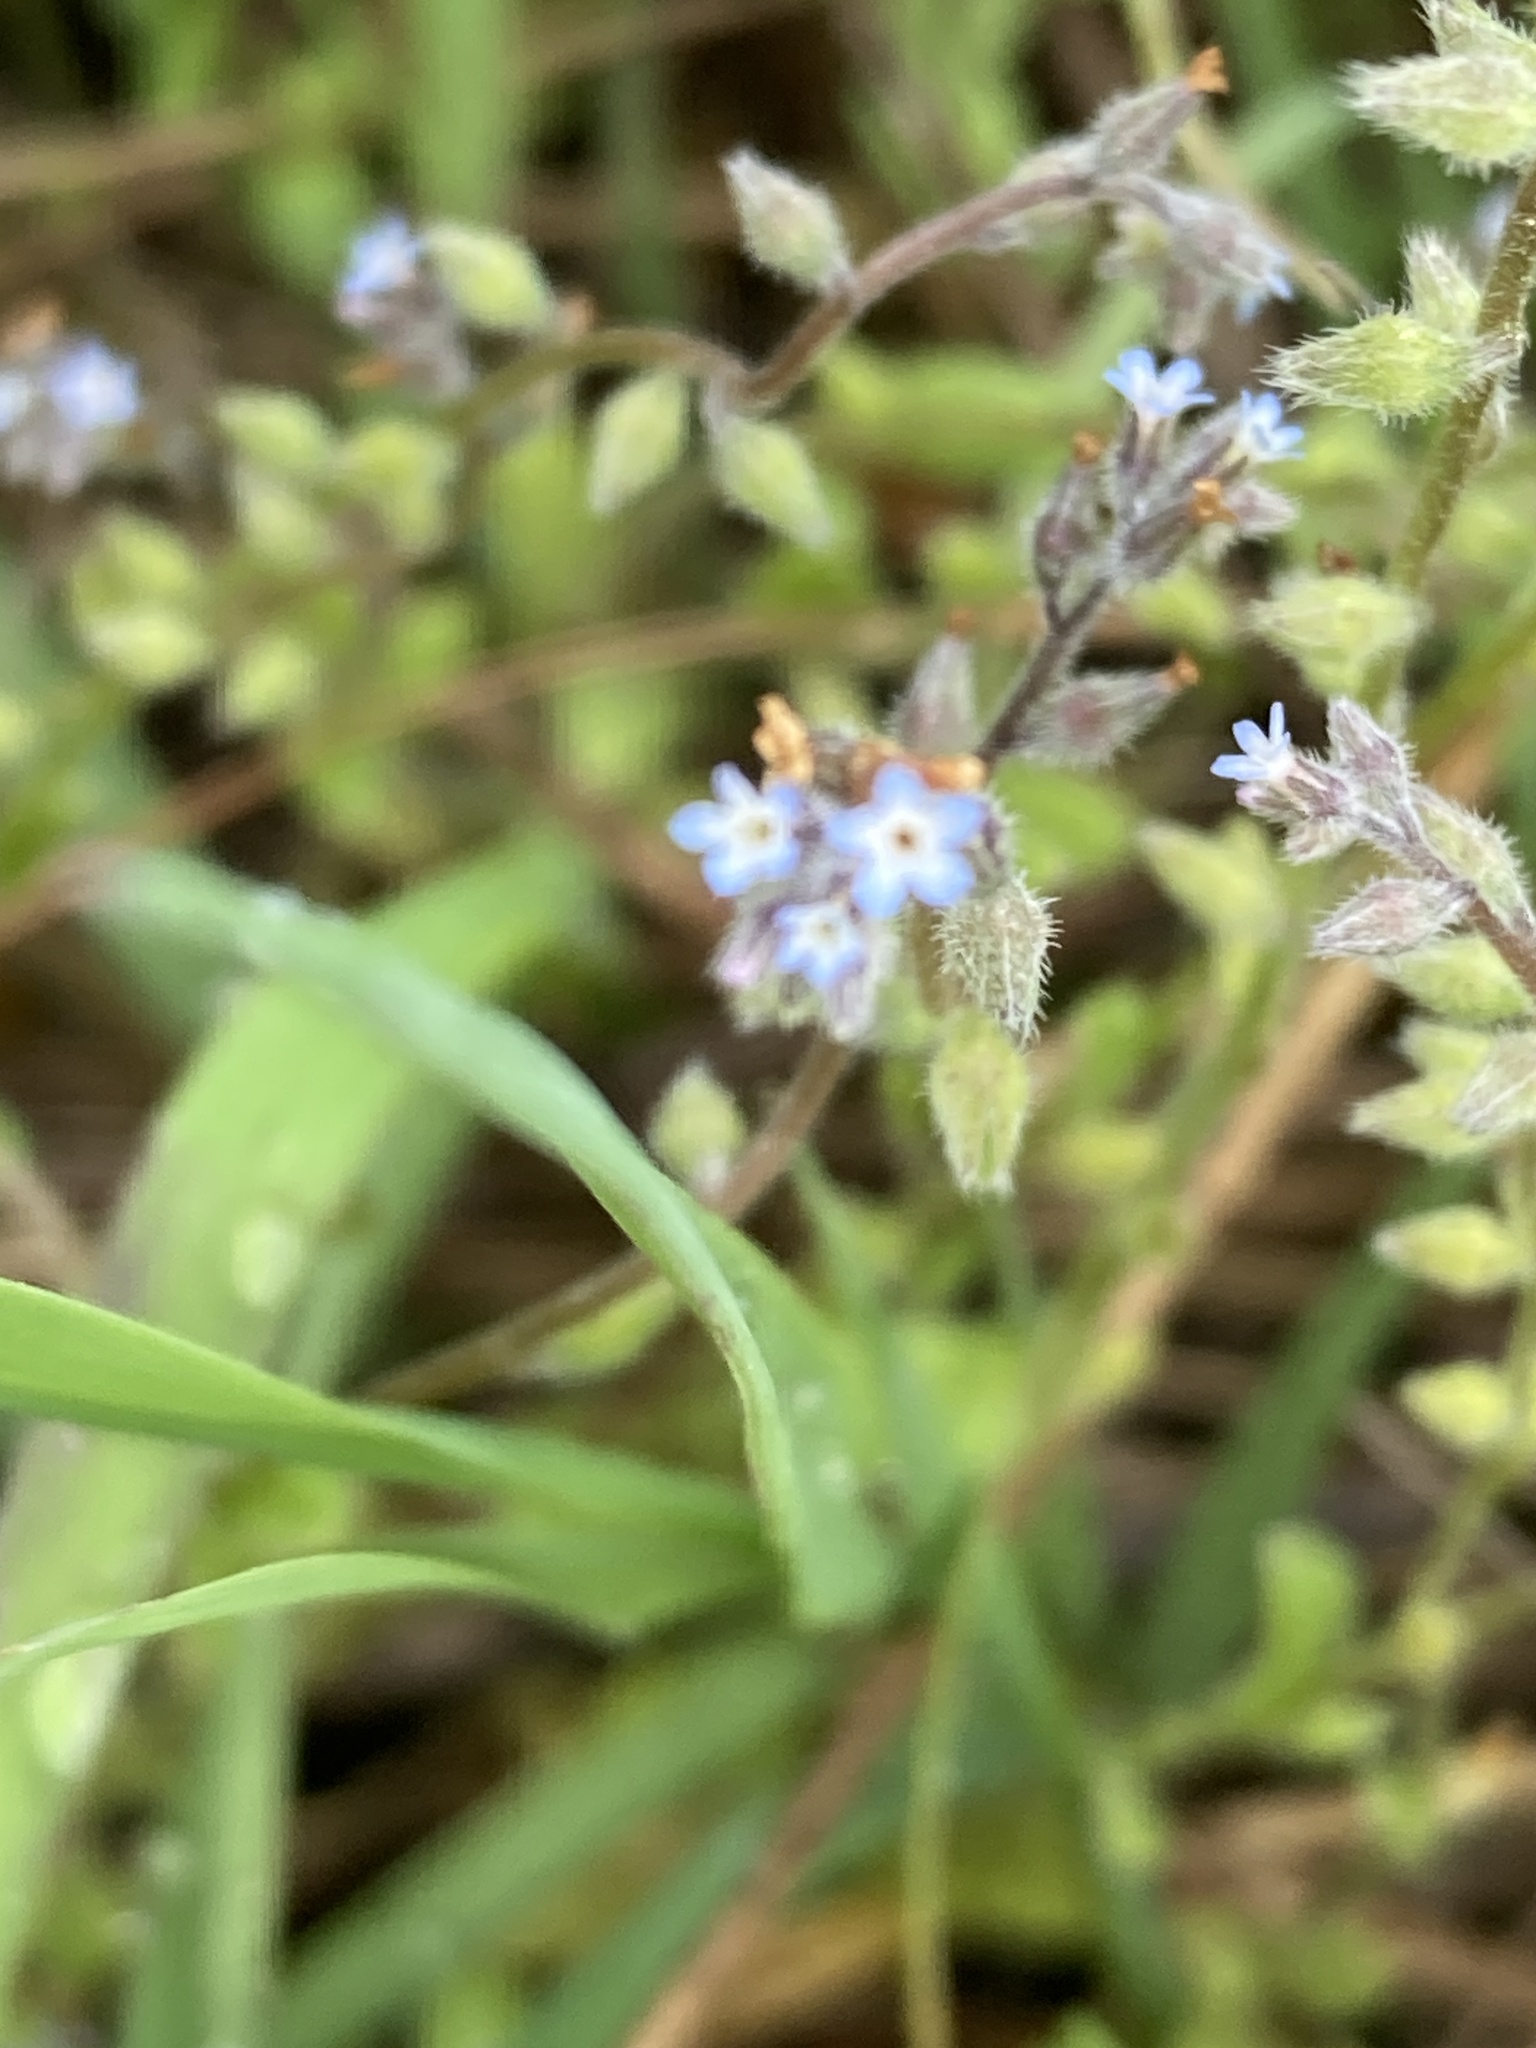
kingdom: Plantae
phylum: Tracheophyta
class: Magnoliopsida
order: Boraginales
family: Boraginaceae
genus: Myosotis
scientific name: Myosotis stricta
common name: Strict forget-me-not
